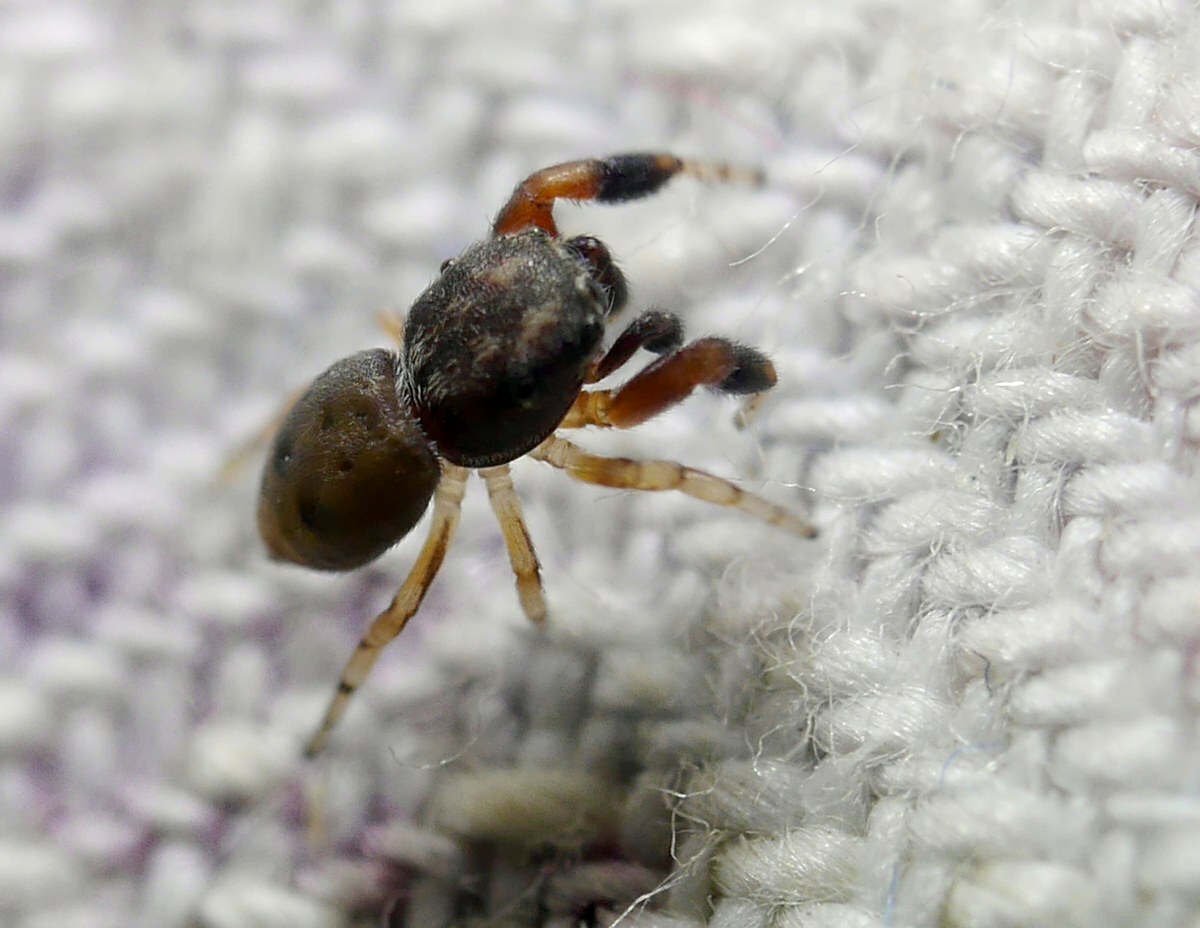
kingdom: Animalia
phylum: Arthropoda
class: Arachnida
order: Araneae
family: Salticidae
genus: Ballus
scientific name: Ballus chalybeius
